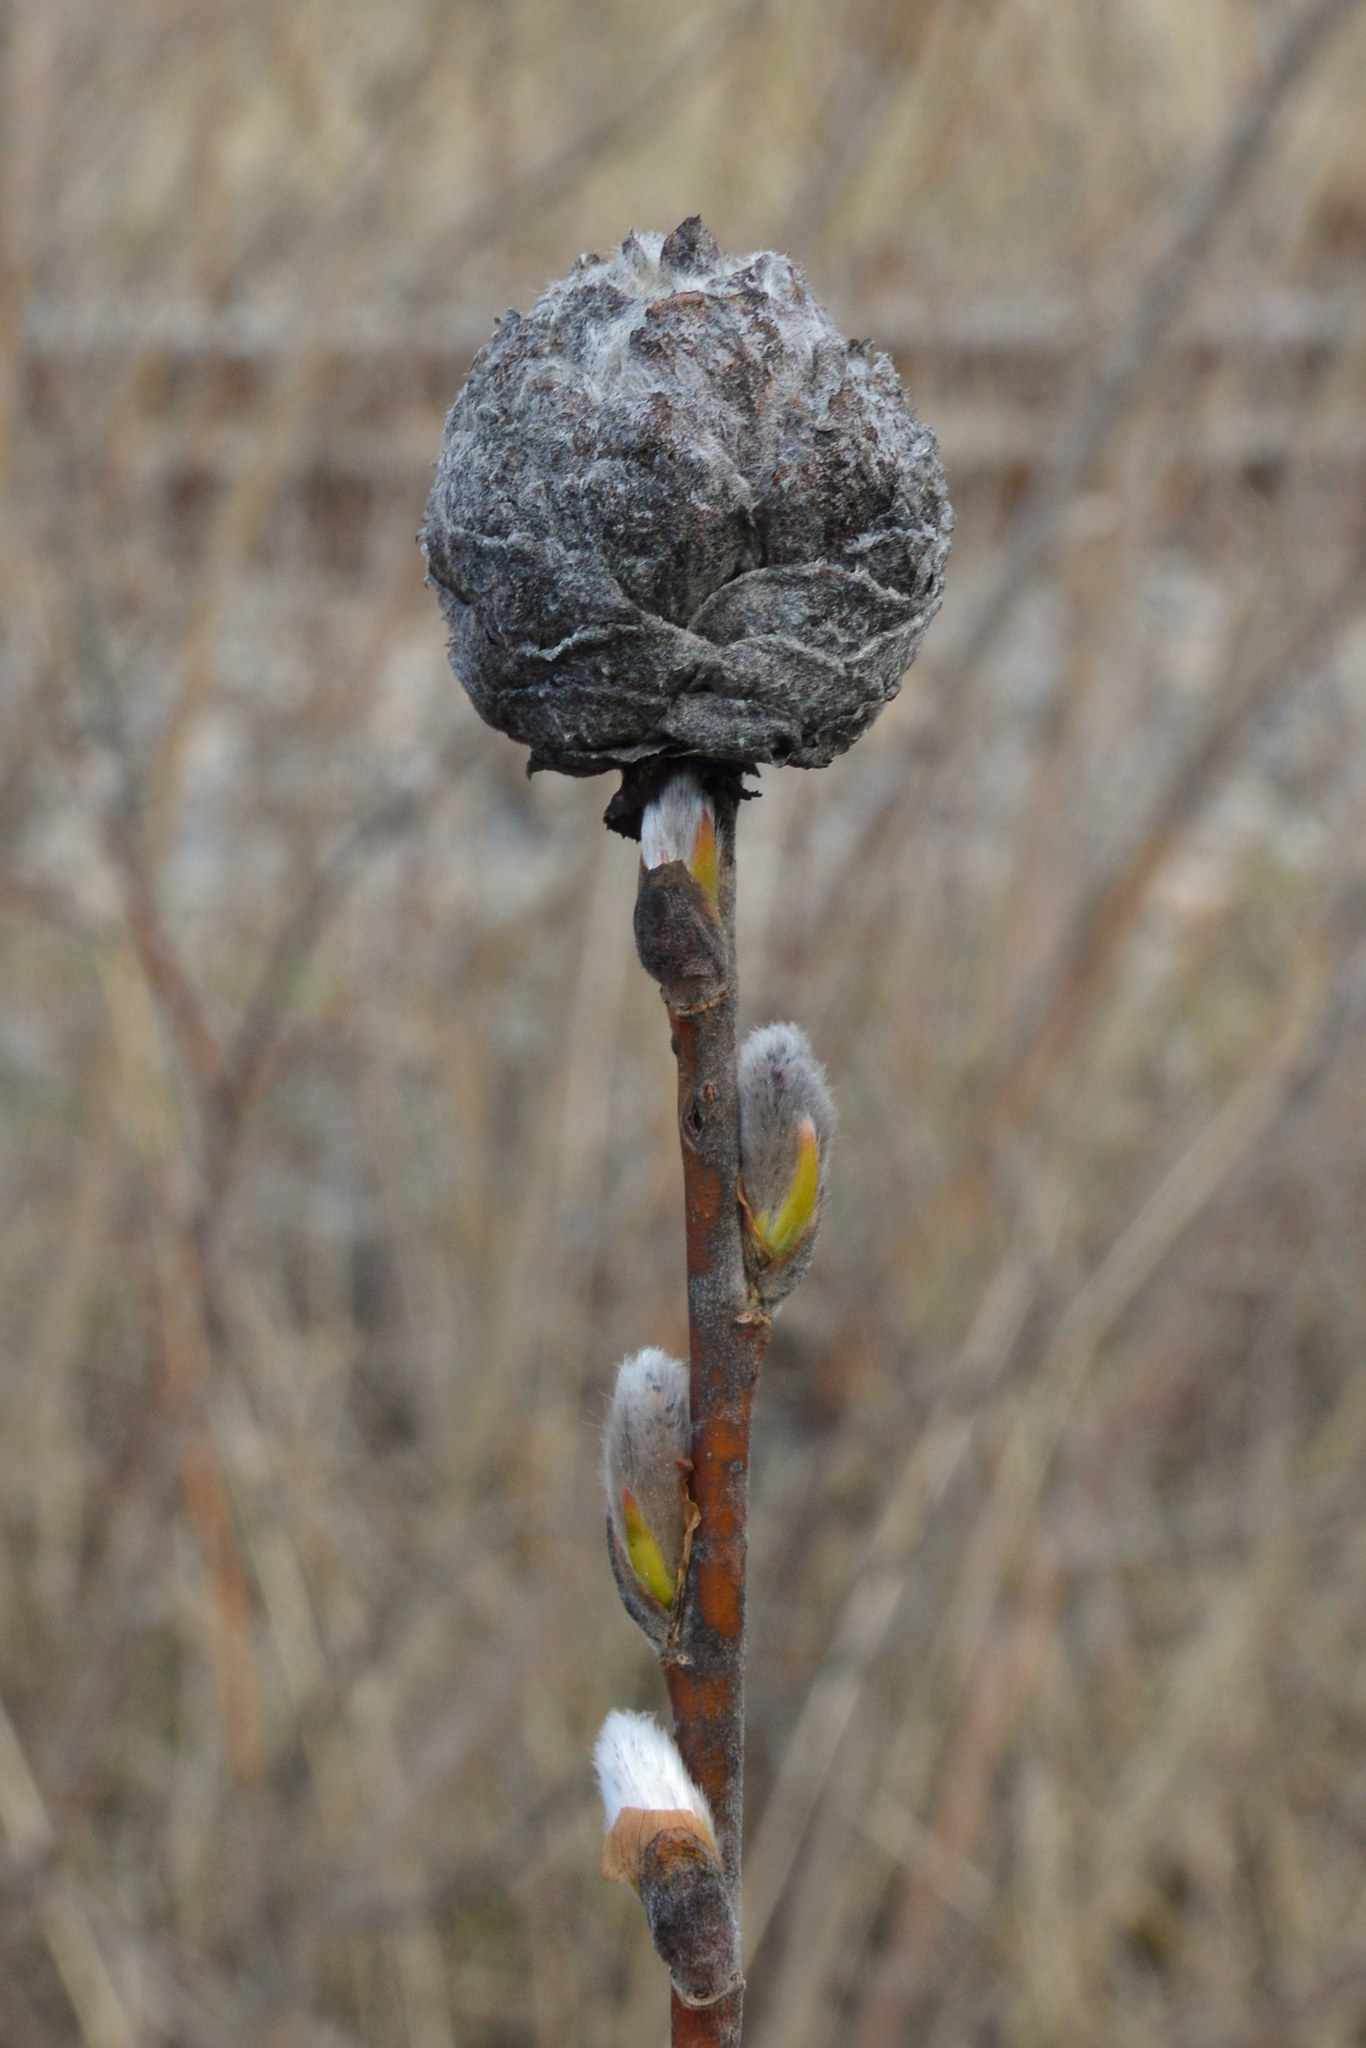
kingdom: Animalia
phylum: Arthropoda
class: Insecta
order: Diptera
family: Cecidomyiidae
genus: Rabdophaga
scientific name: Rabdophaga strobiloides
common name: Willow pinecone gall midge
